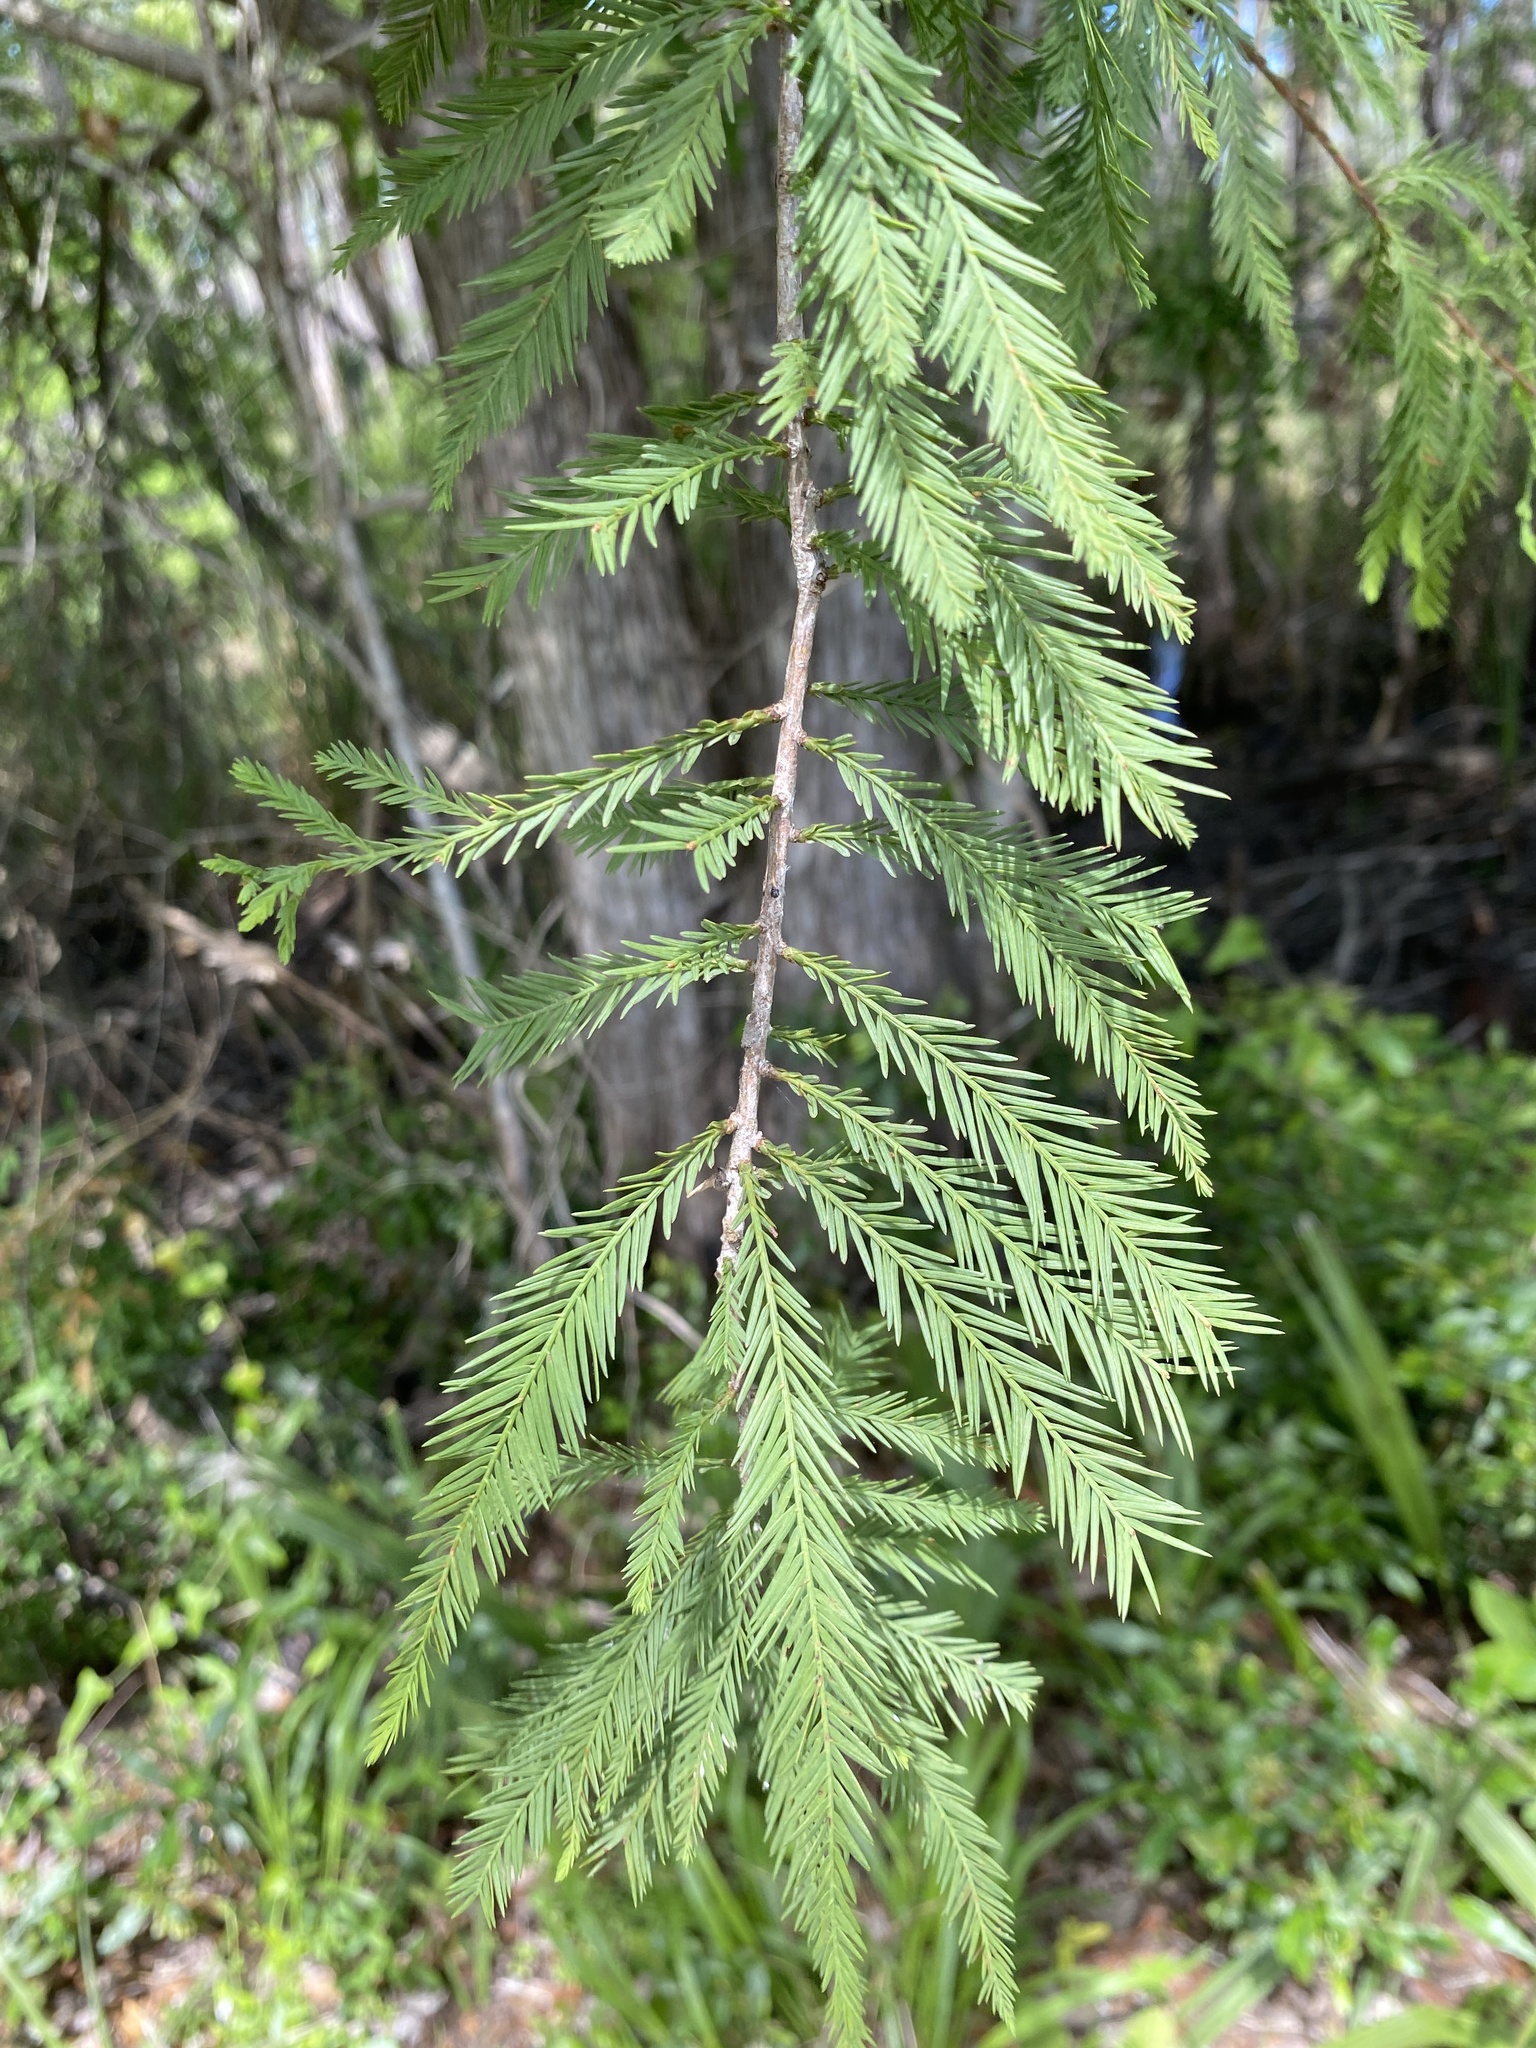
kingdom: Plantae
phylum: Tracheophyta
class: Pinopsida
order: Pinales
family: Cupressaceae
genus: Taxodium
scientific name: Taxodium distichum
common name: Bald cypress
